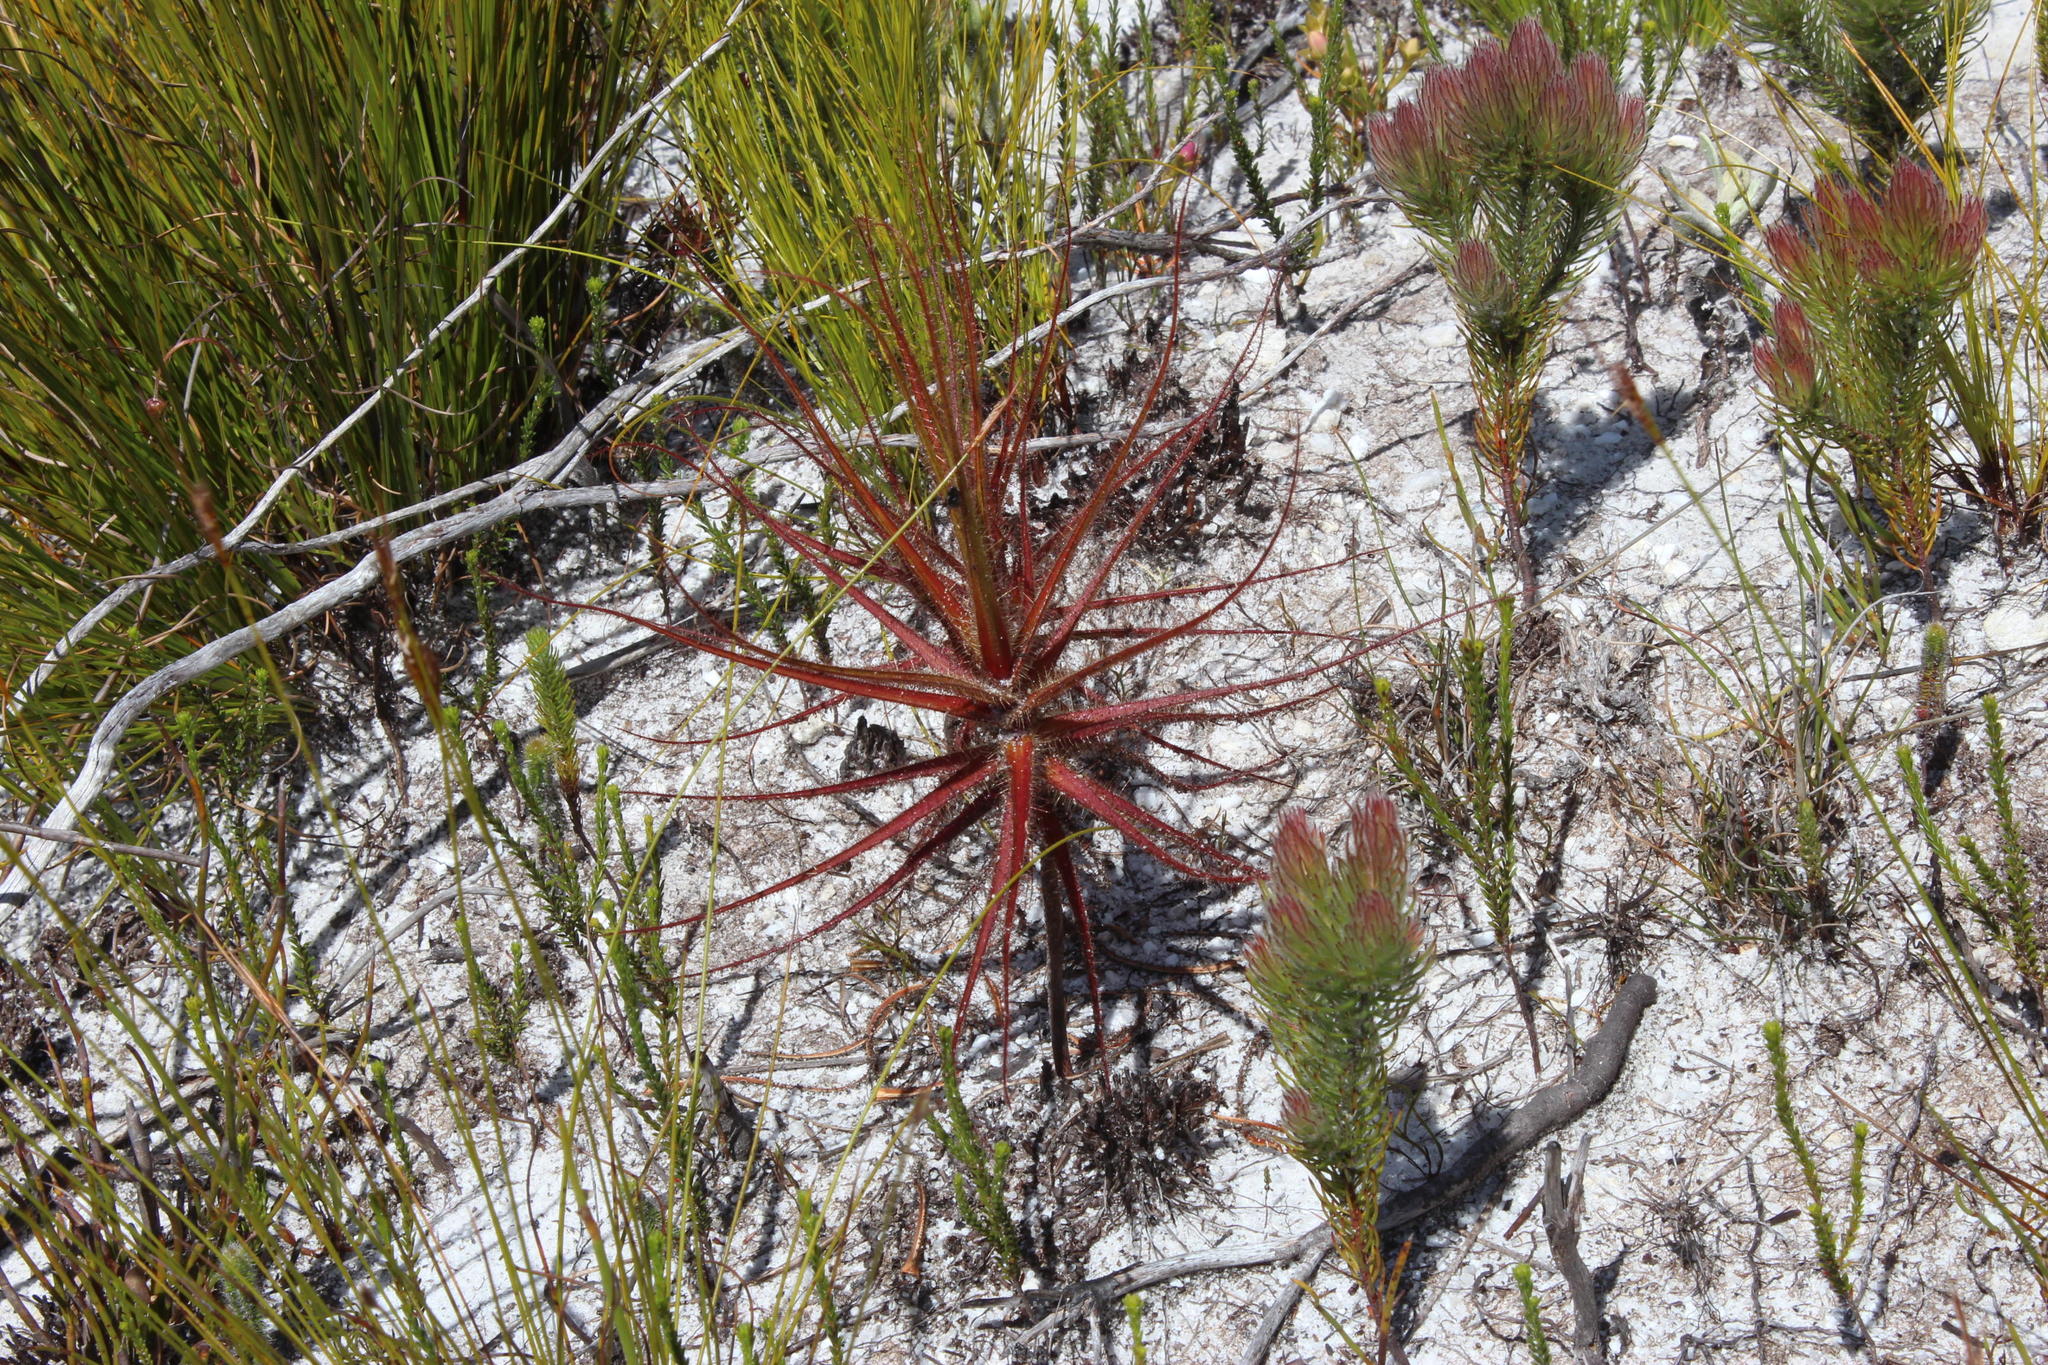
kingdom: Plantae
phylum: Tracheophyta
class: Magnoliopsida
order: Ericales
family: Roridulaceae
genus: Roridula
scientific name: Roridula gorgonias
